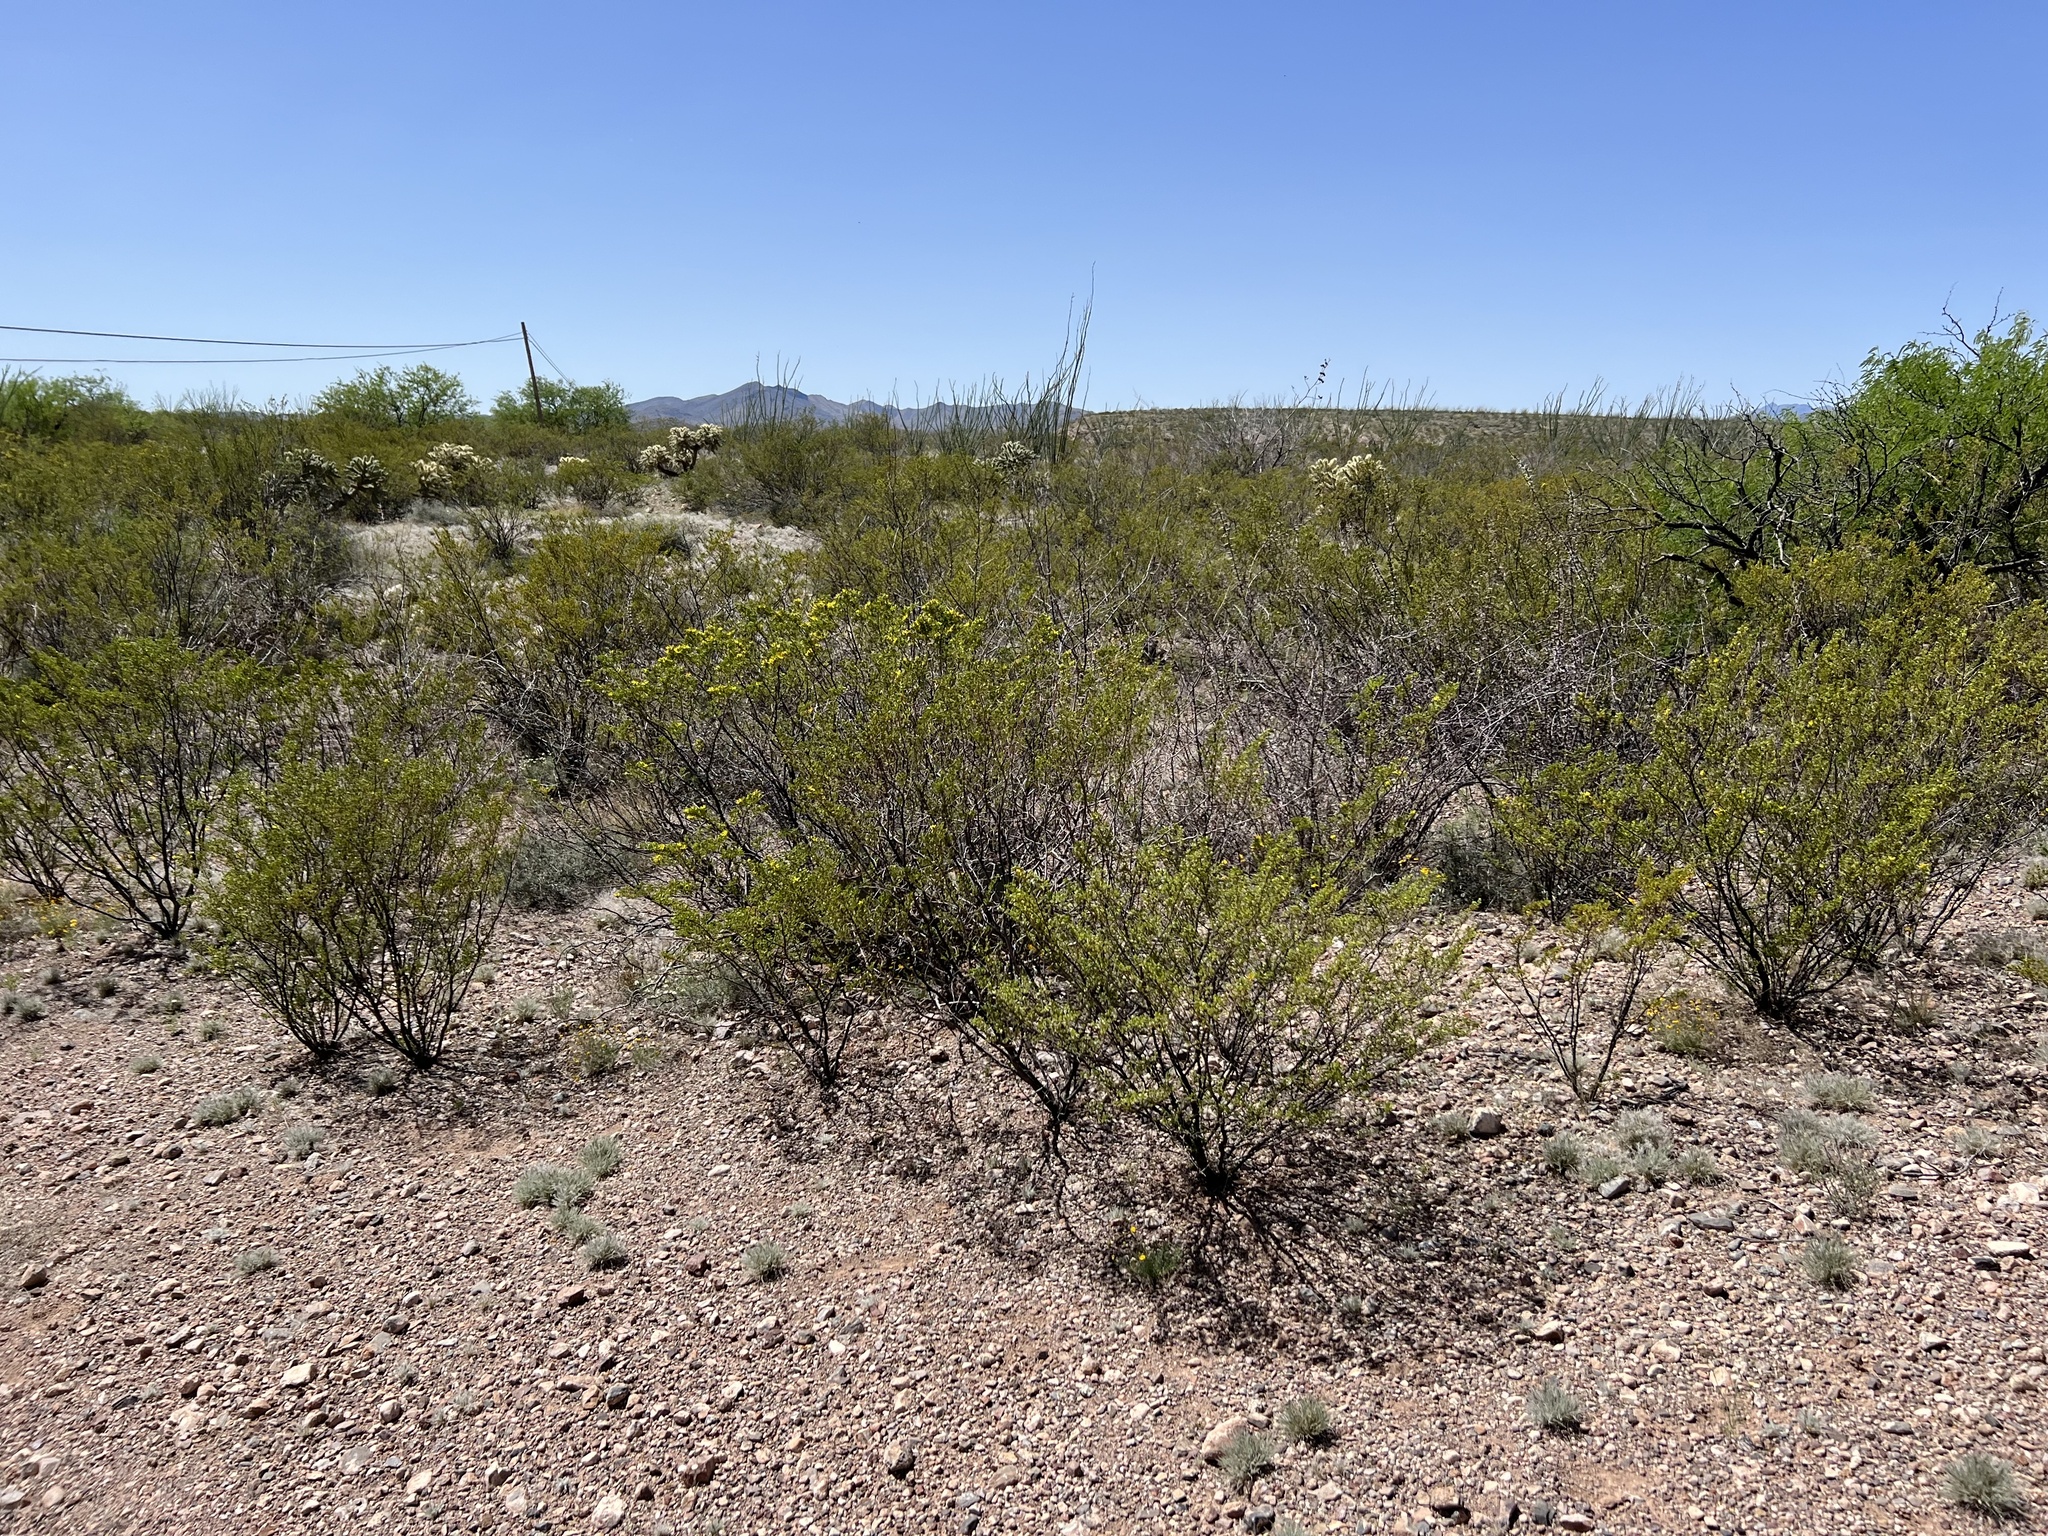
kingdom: Plantae
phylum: Tracheophyta
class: Magnoliopsida
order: Zygophyllales
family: Zygophyllaceae
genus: Larrea
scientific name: Larrea tridentata
